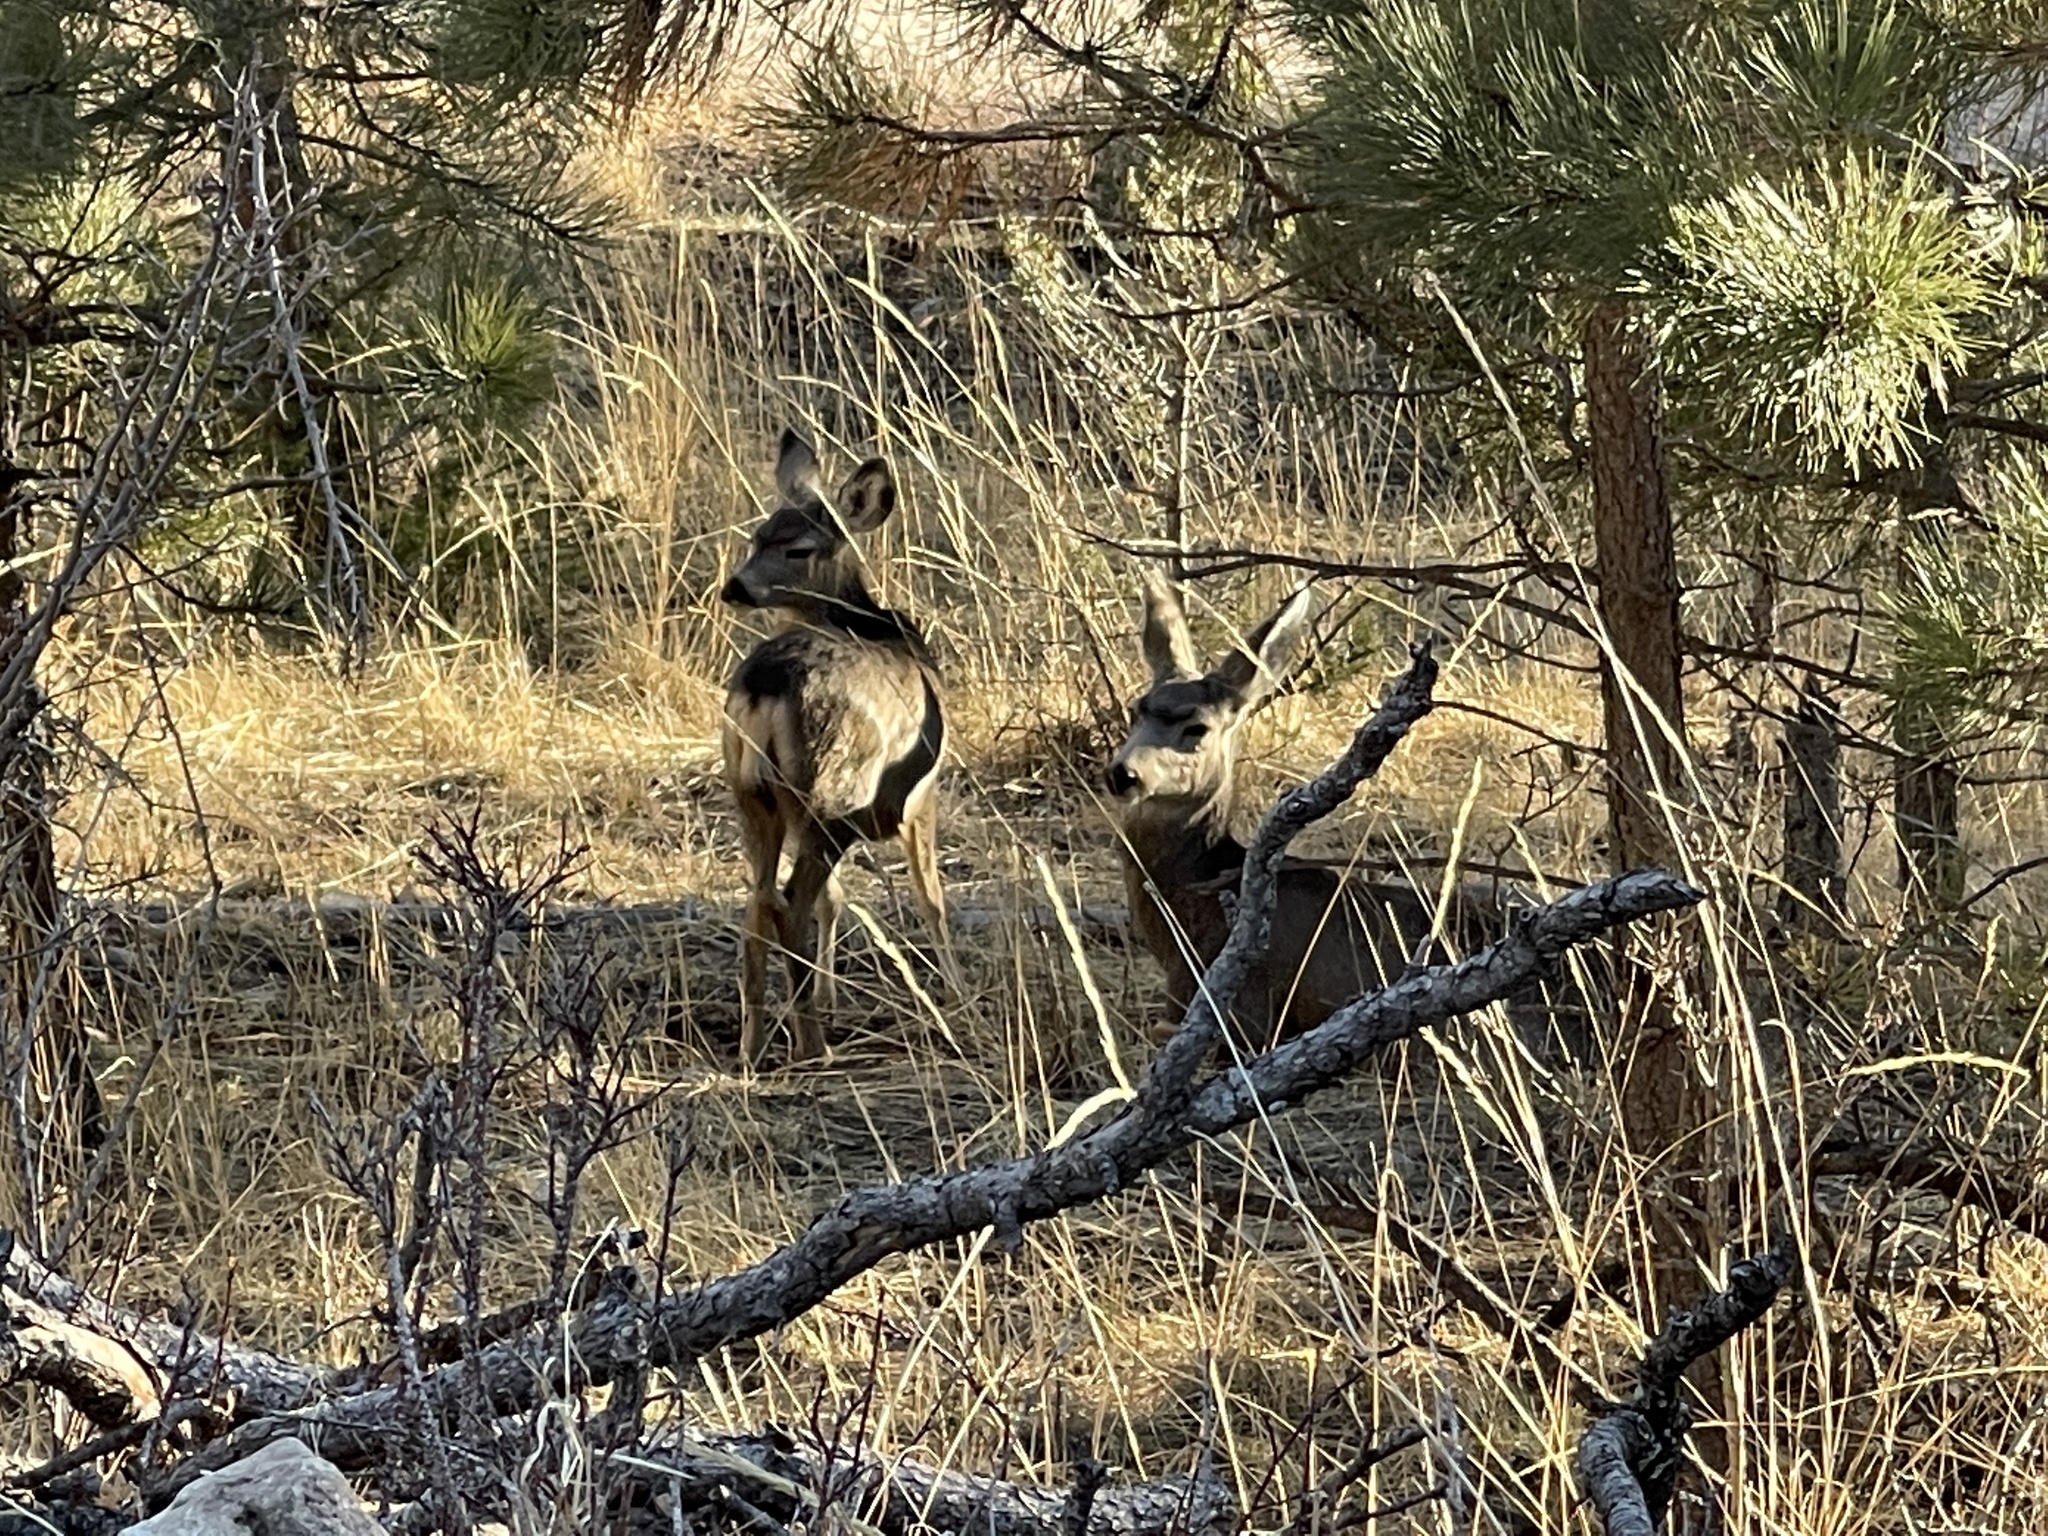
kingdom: Animalia
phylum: Chordata
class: Mammalia
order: Artiodactyla
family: Cervidae
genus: Odocoileus
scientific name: Odocoileus hemionus
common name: Mule deer
